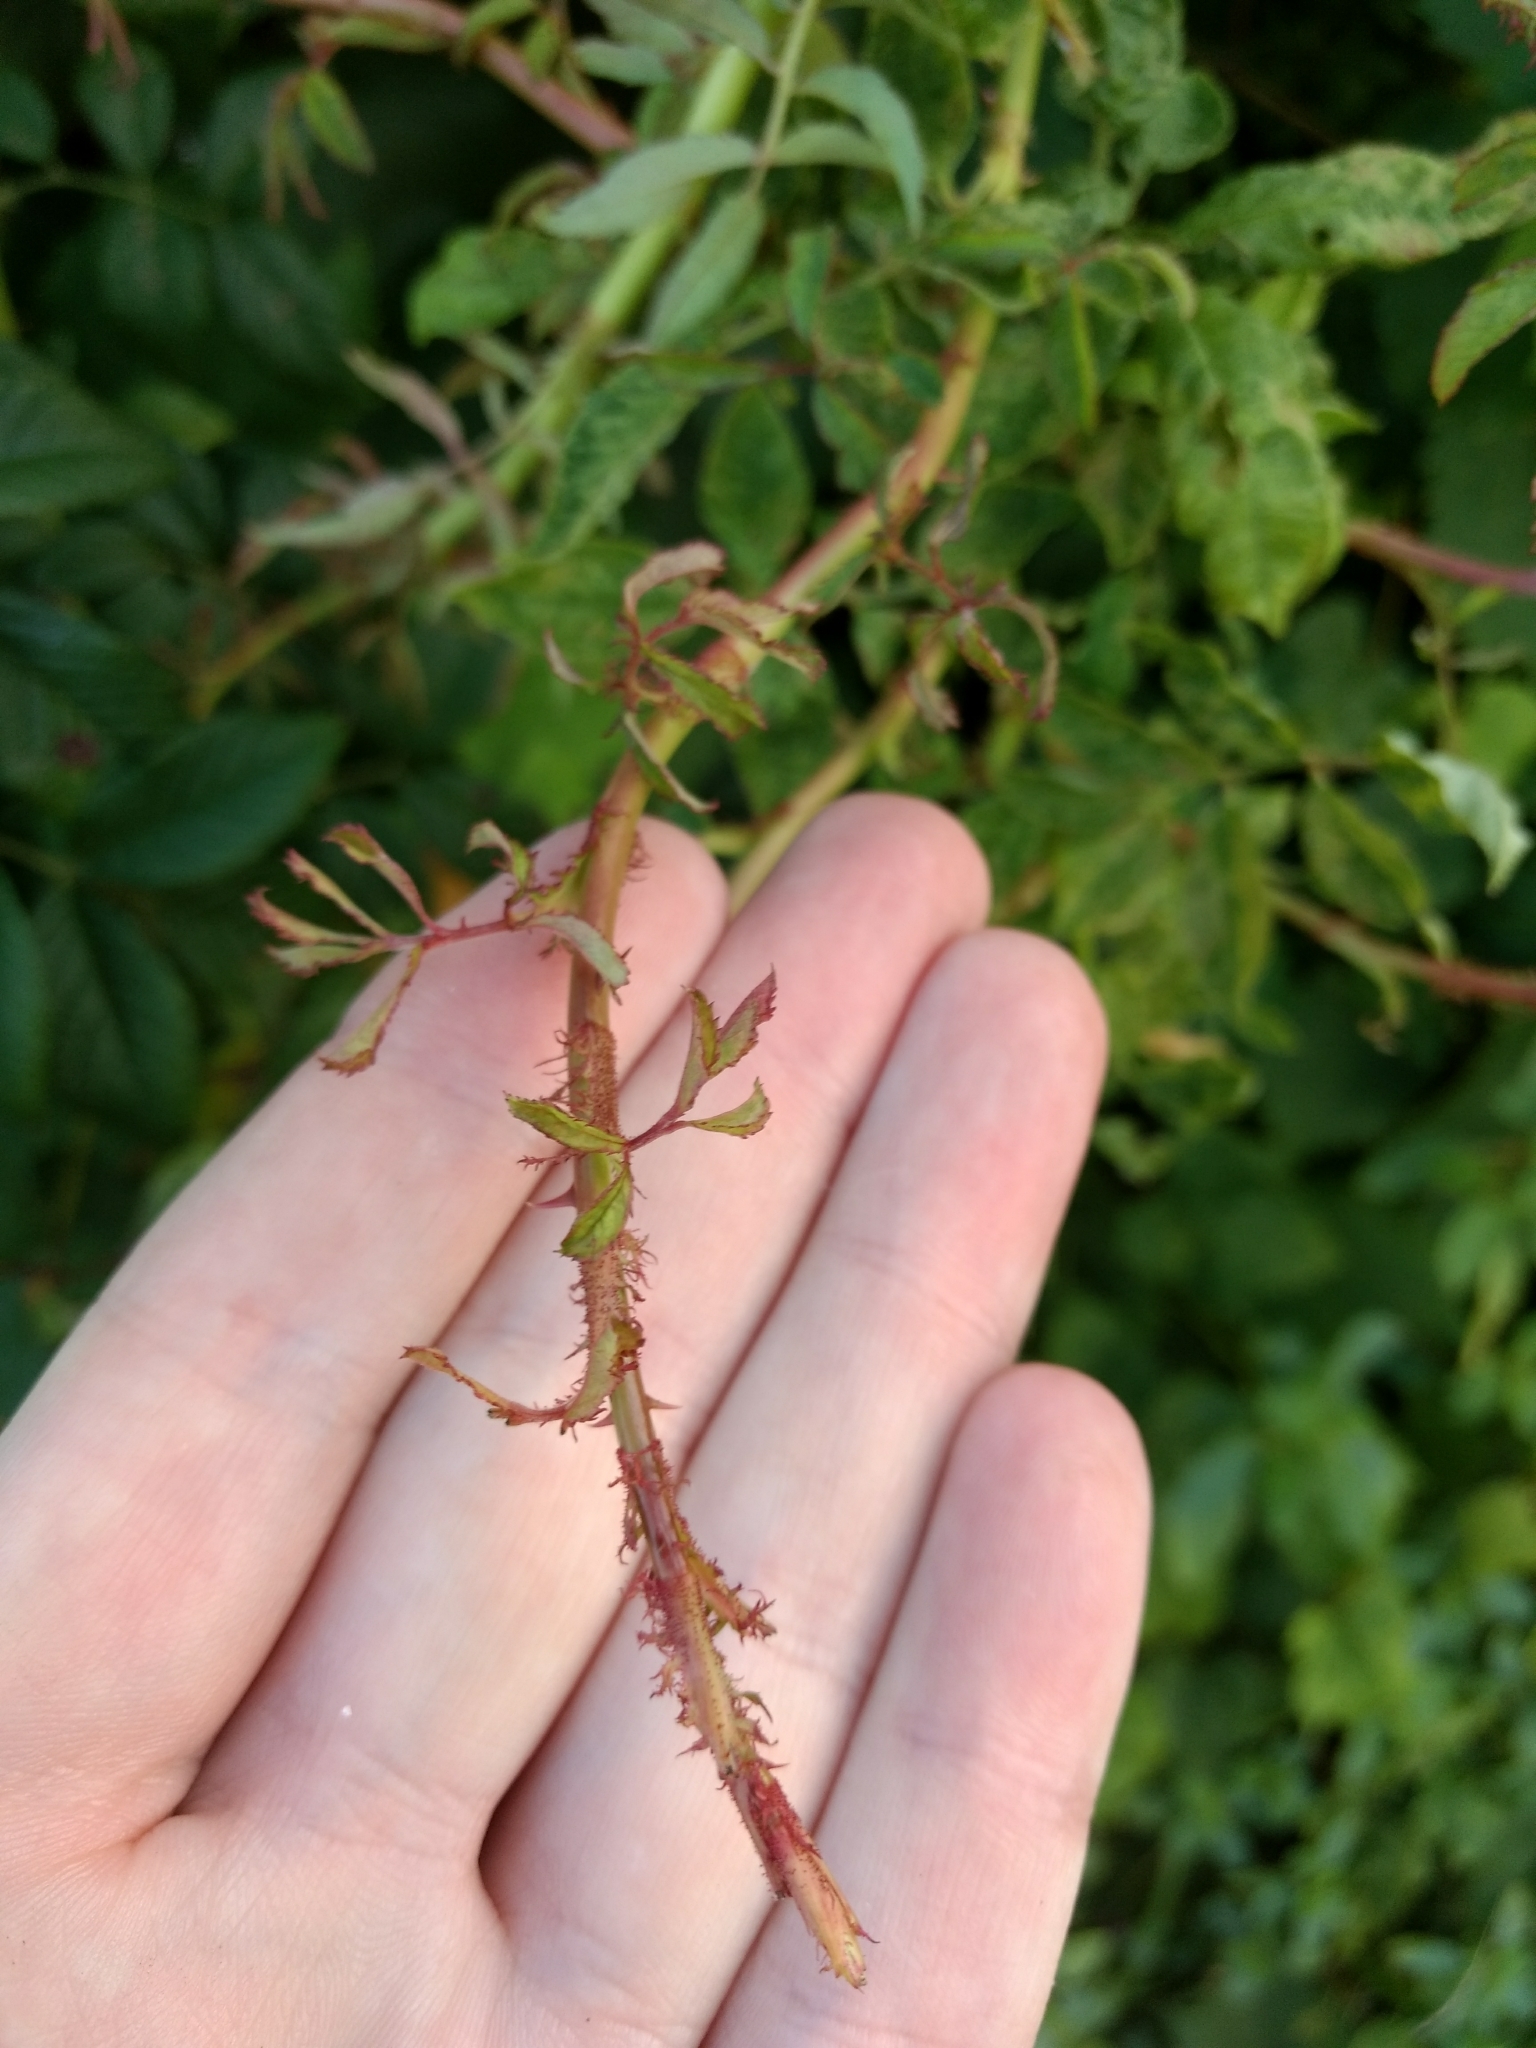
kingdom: Viruses
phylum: Negarnaviricota
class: Ellioviricetes
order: Bunyavirales
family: Fimoviridae
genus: Emaravirus
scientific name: Emaravirus rosae
